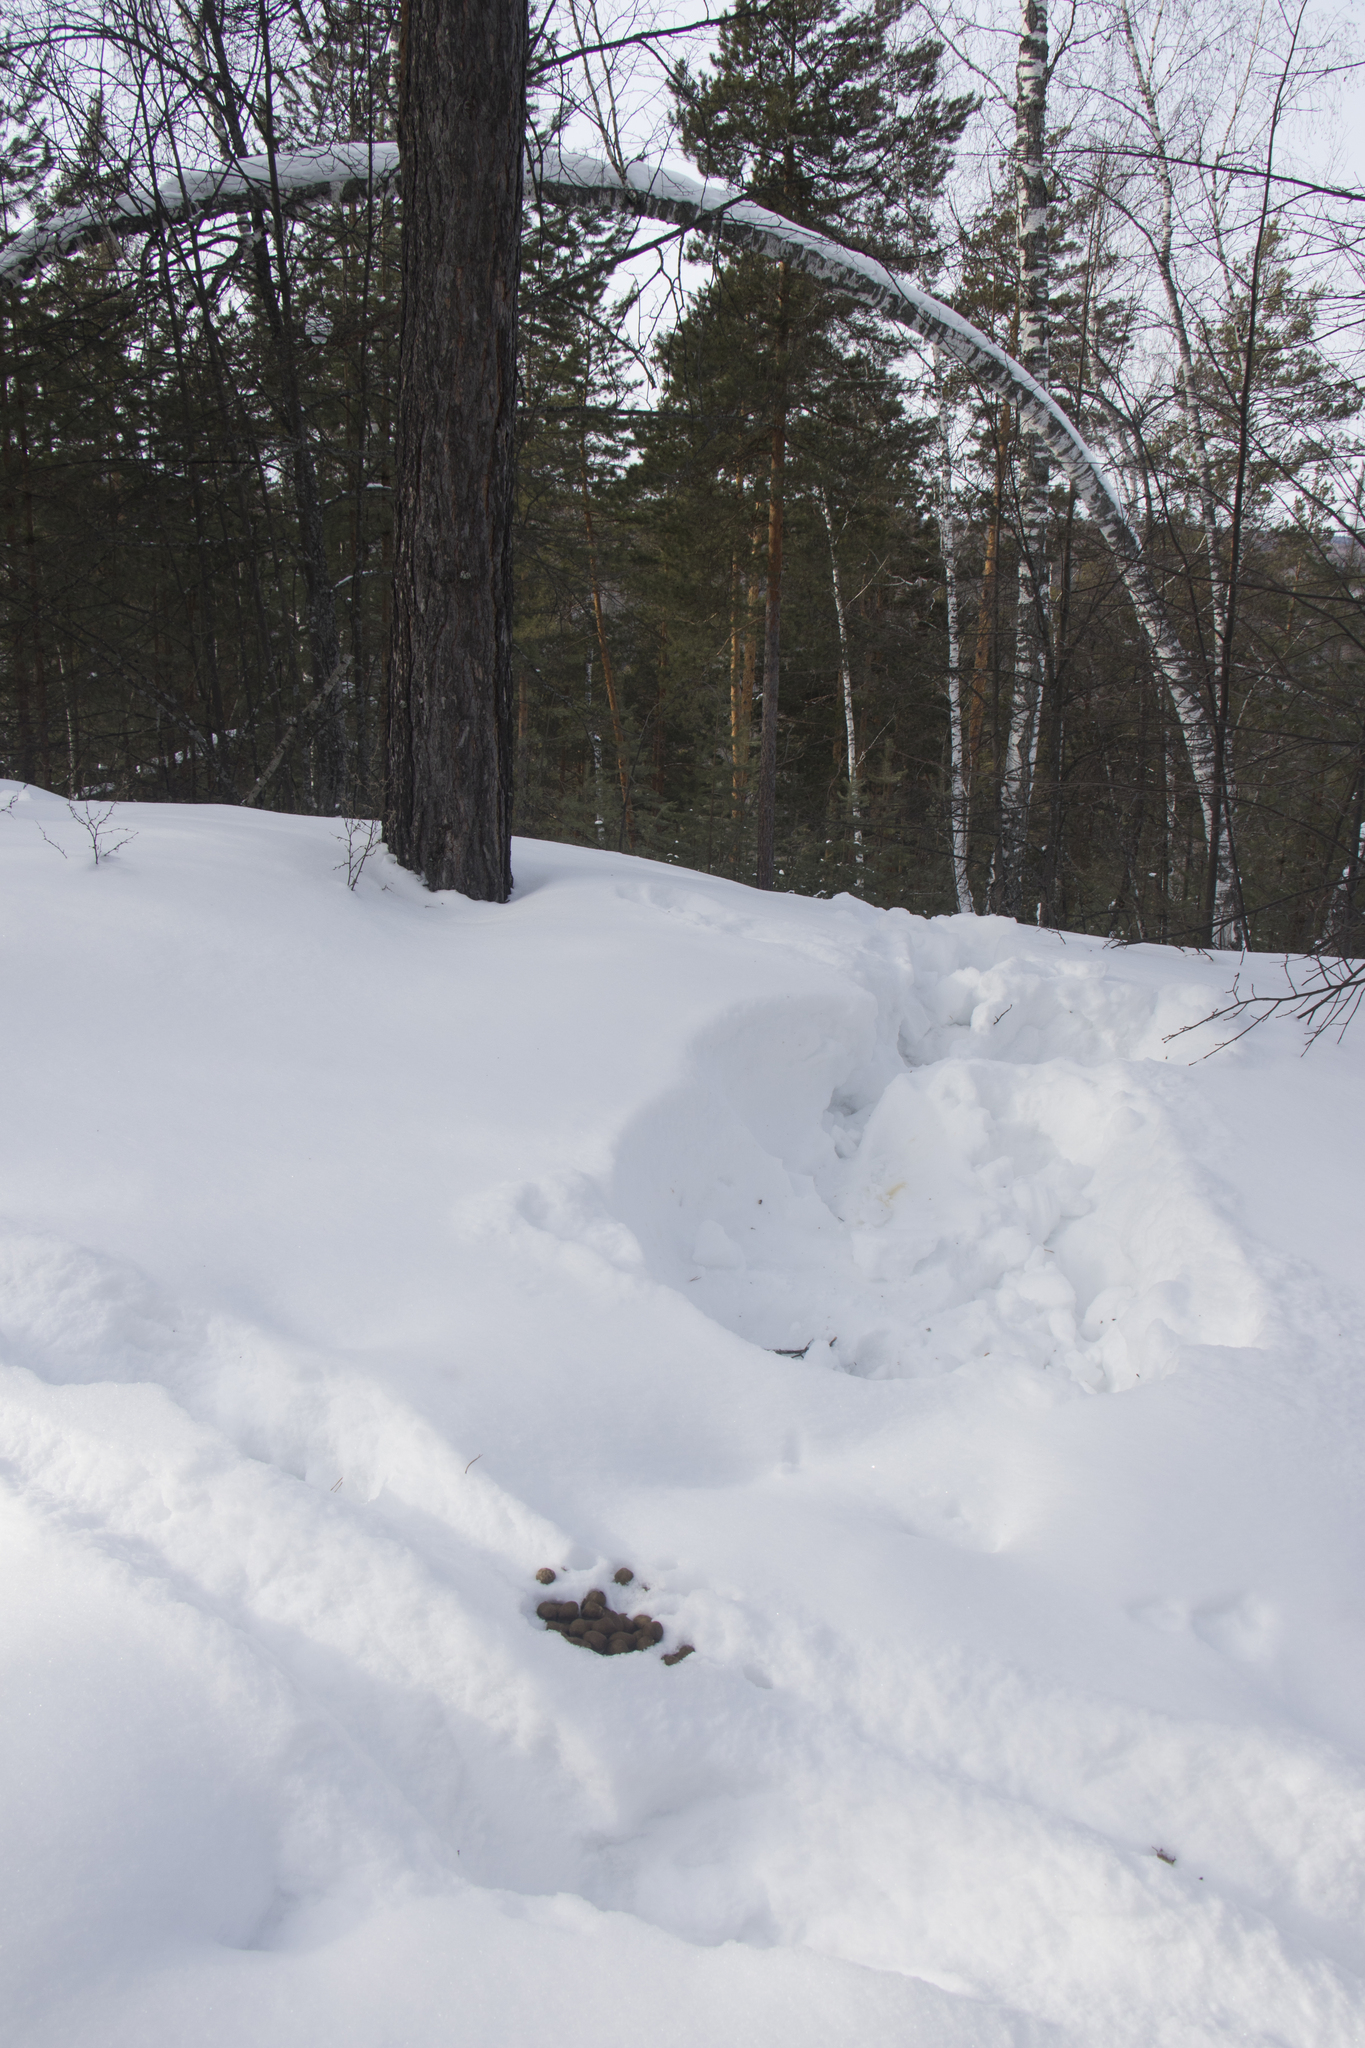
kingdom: Animalia
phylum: Chordata
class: Mammalia
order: Artiodactyla
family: Cervidae
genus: Alces
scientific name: Alces alces
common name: Moose
